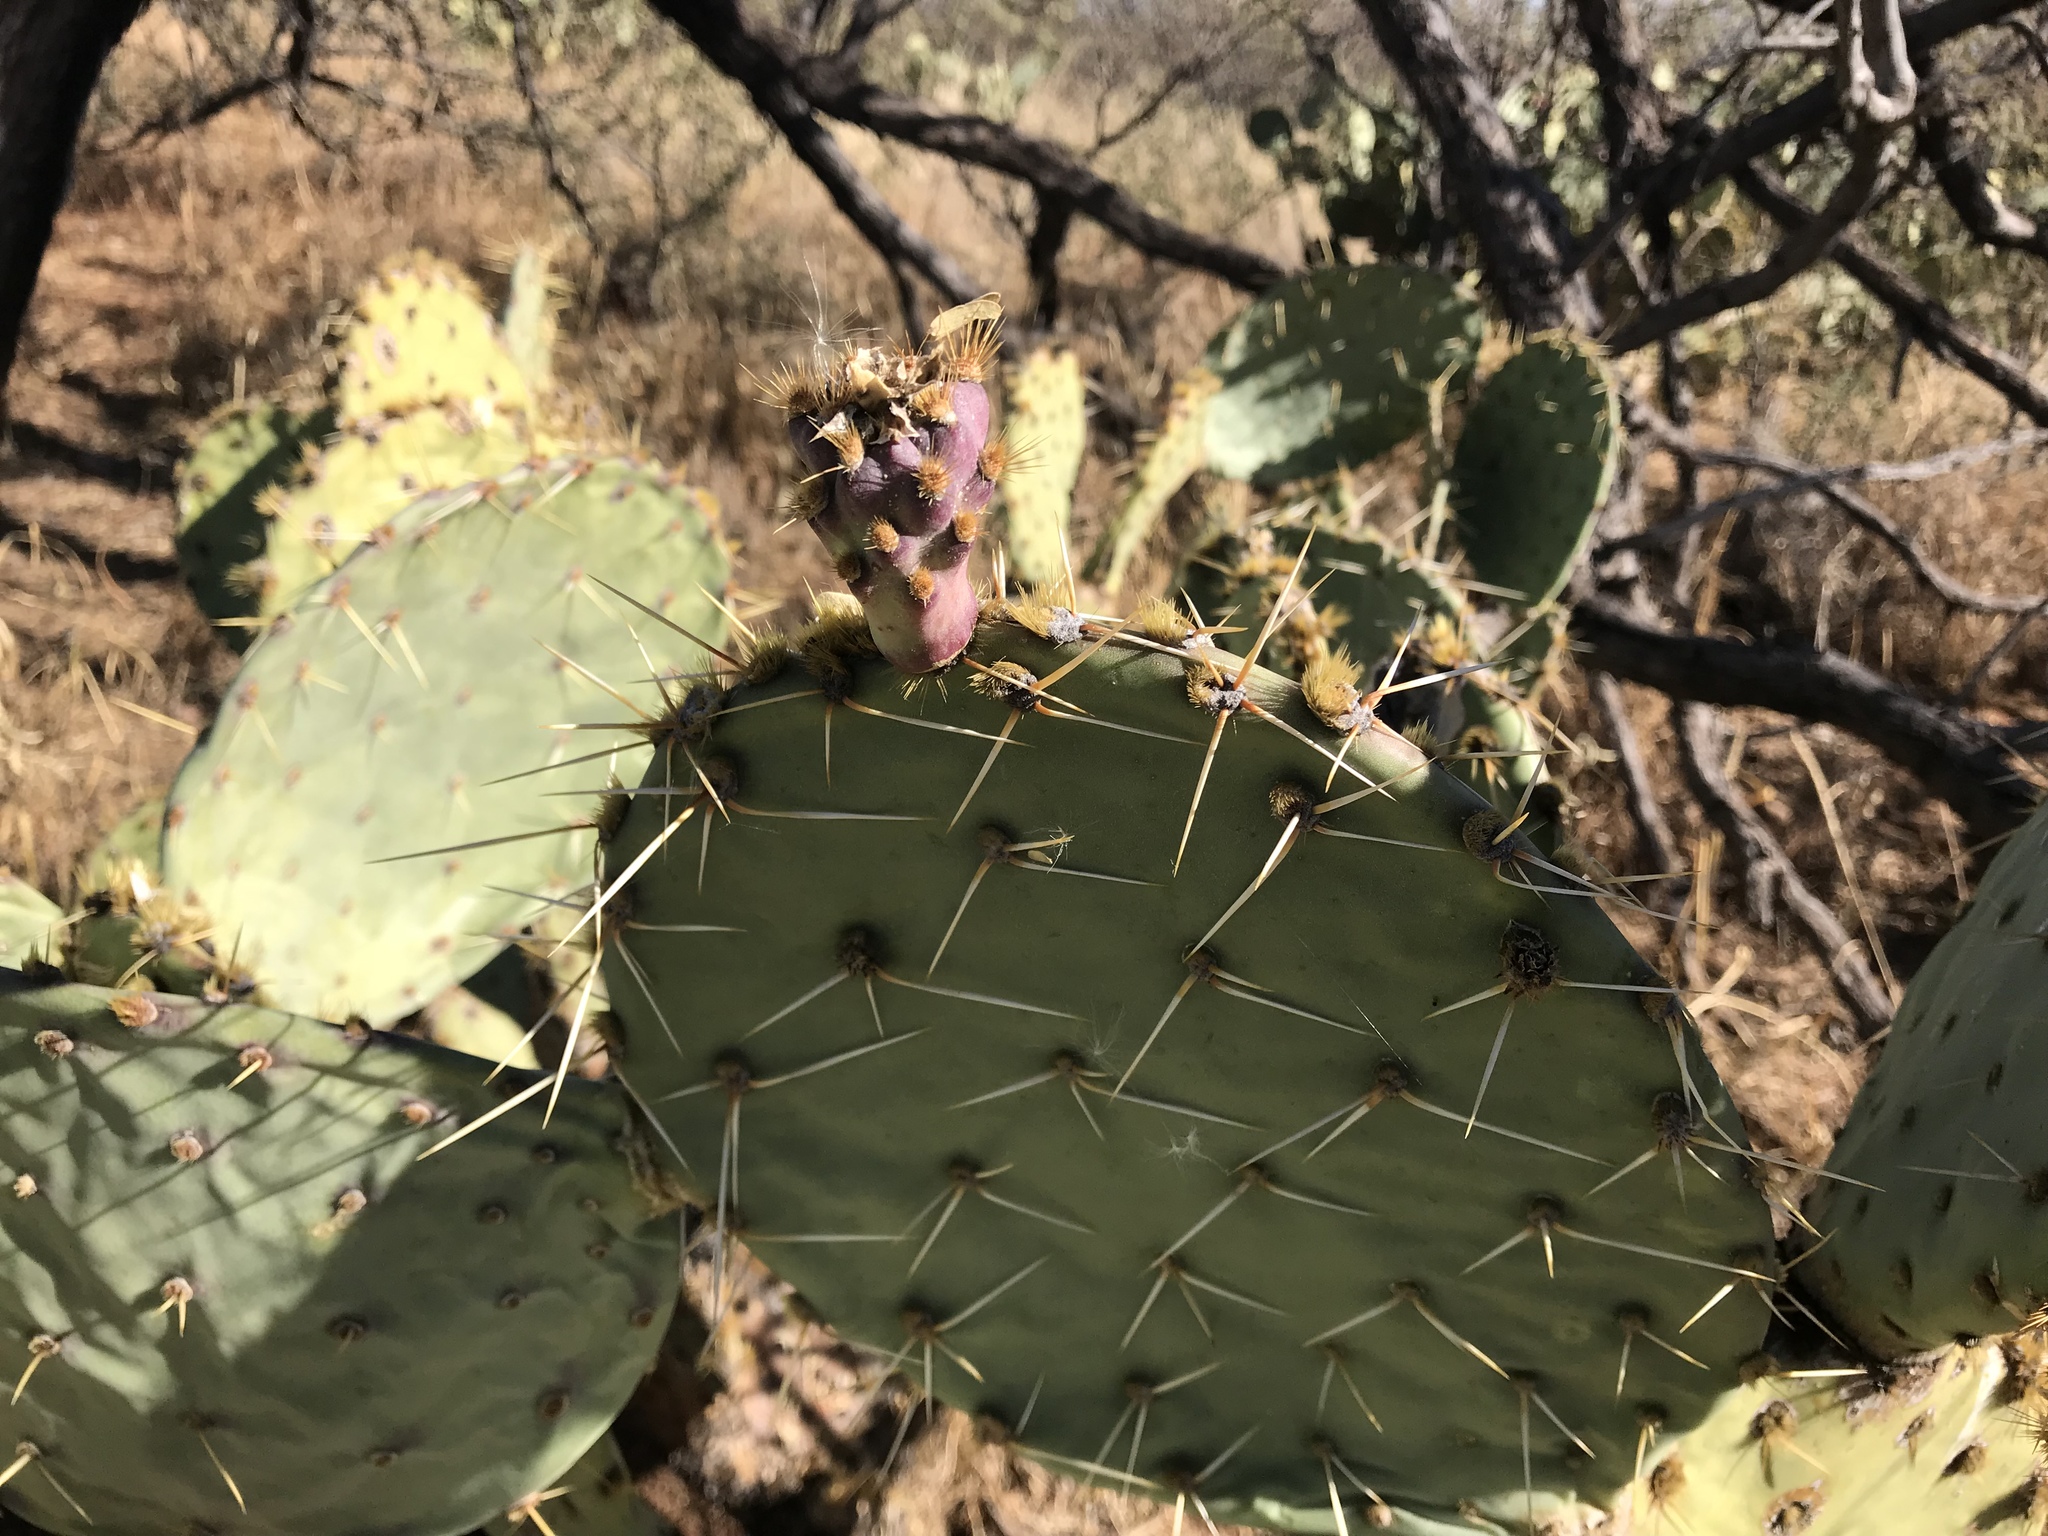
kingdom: Plantae
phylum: Tracheophyta
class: Magnoliopsida
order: Caryophyllales
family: Cactaceae
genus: Opuntia
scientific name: Opuntia chlorotica
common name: Dollar-joint prickly-pear
